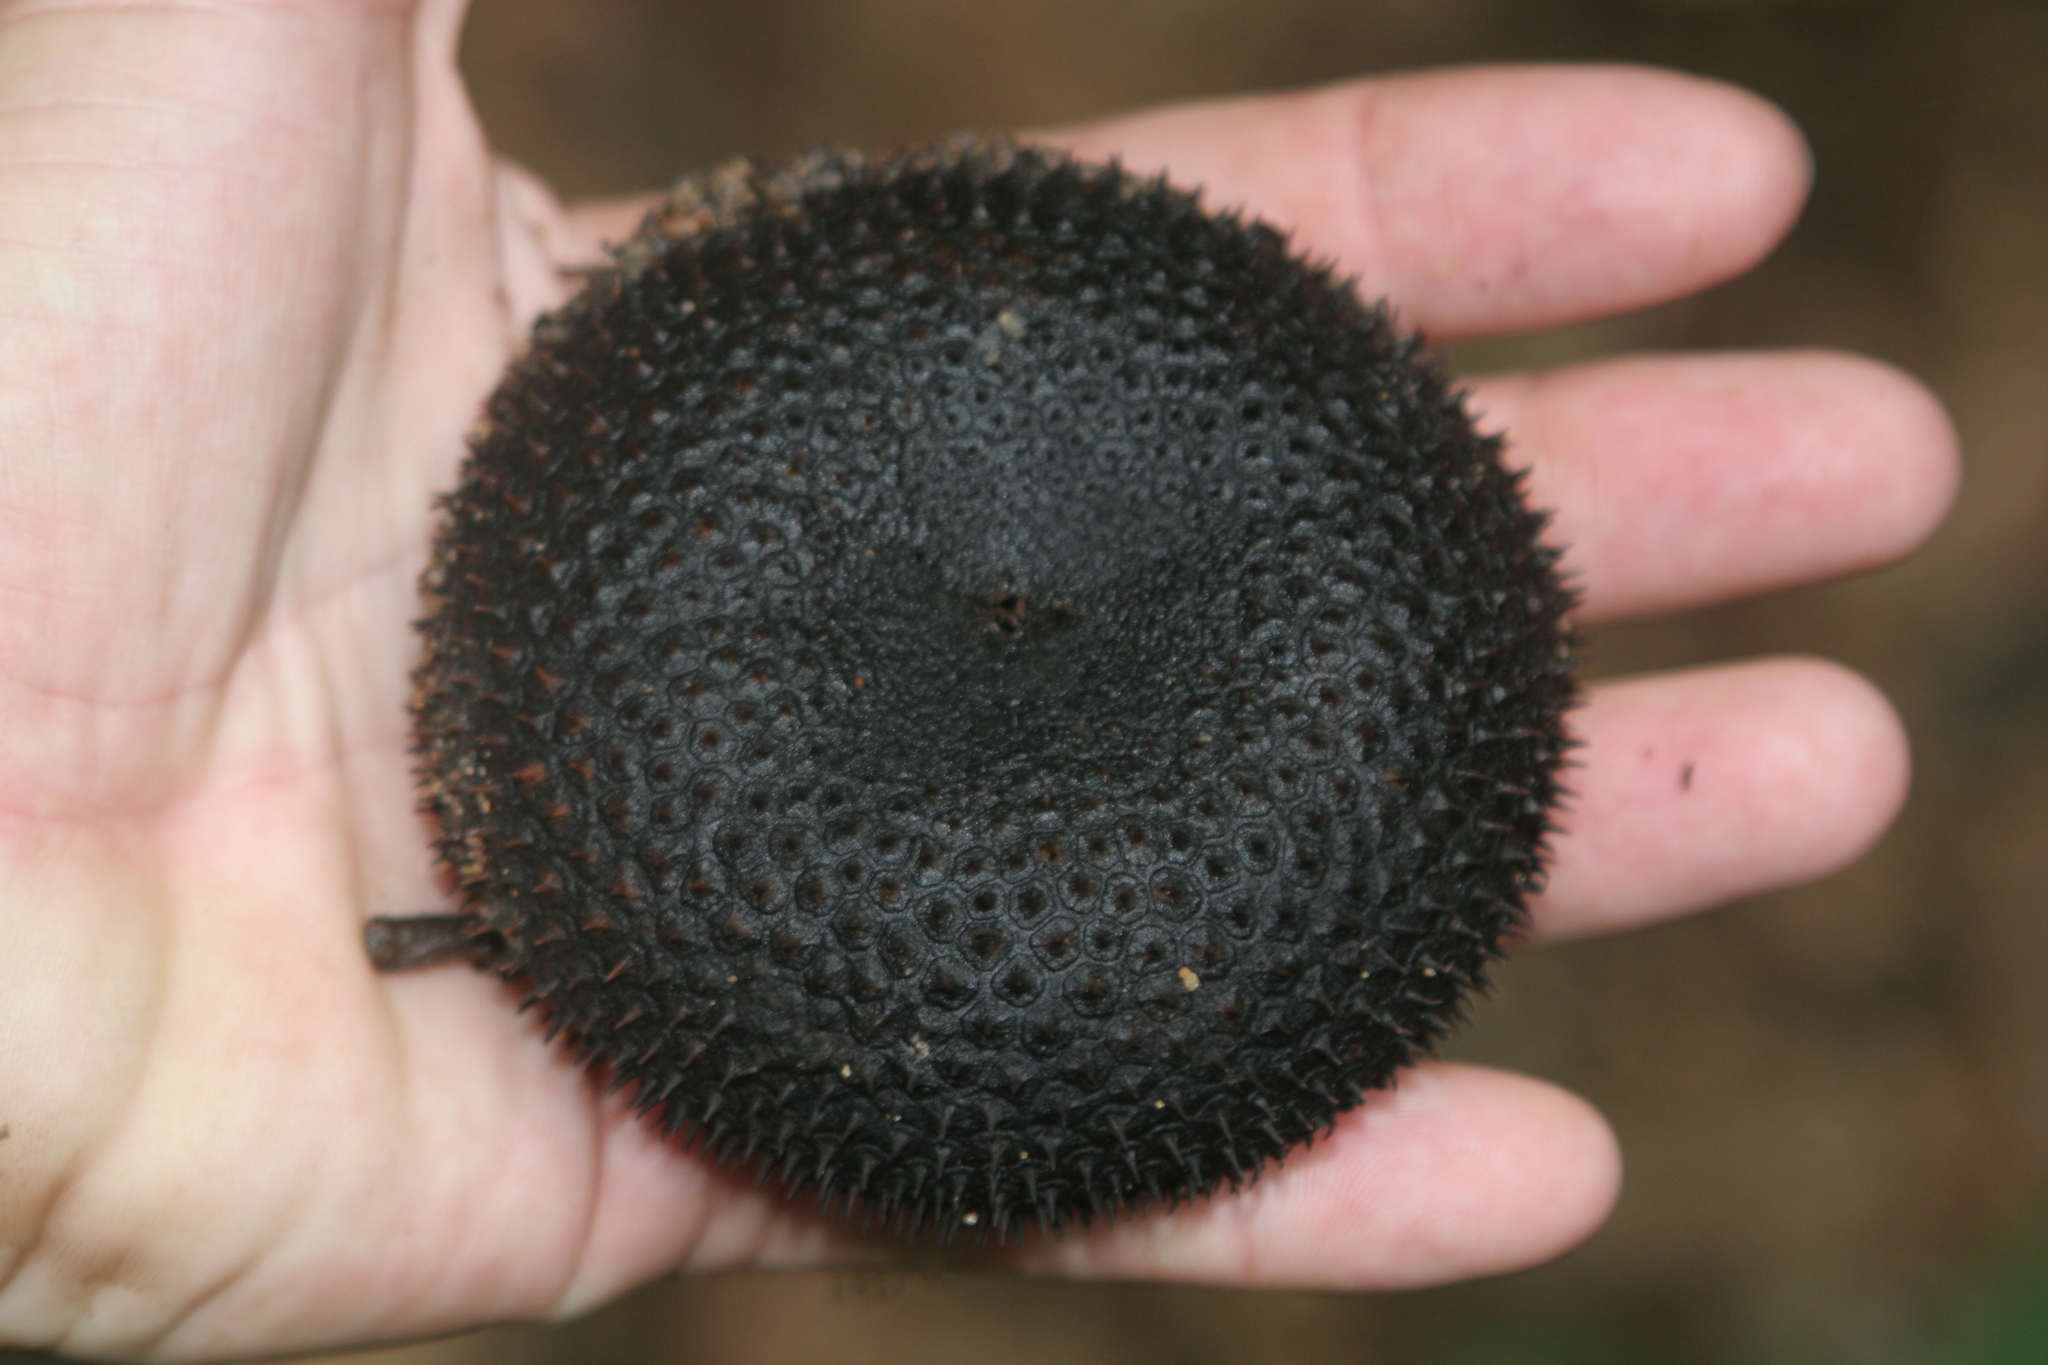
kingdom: Plantae
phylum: Tracheophyta
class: Magnoliopsida
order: Malvales
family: Malvaceae
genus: Apeiba
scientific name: Apeiba membranacea
